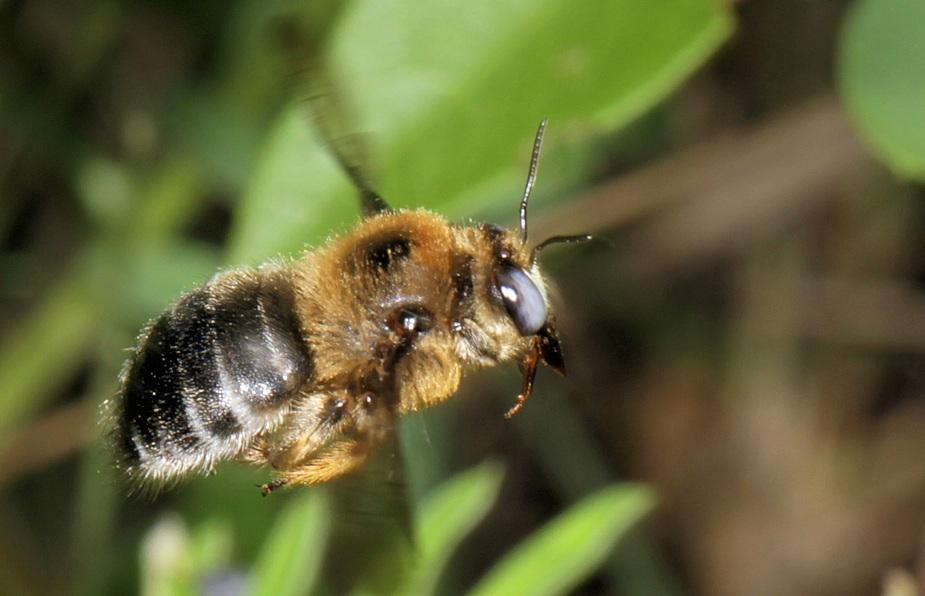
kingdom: Animalia
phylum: Arthropoda
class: Insecta
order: Hymenoptera
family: Apidae
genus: Xylocopa
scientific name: Xylocopa lugubris
